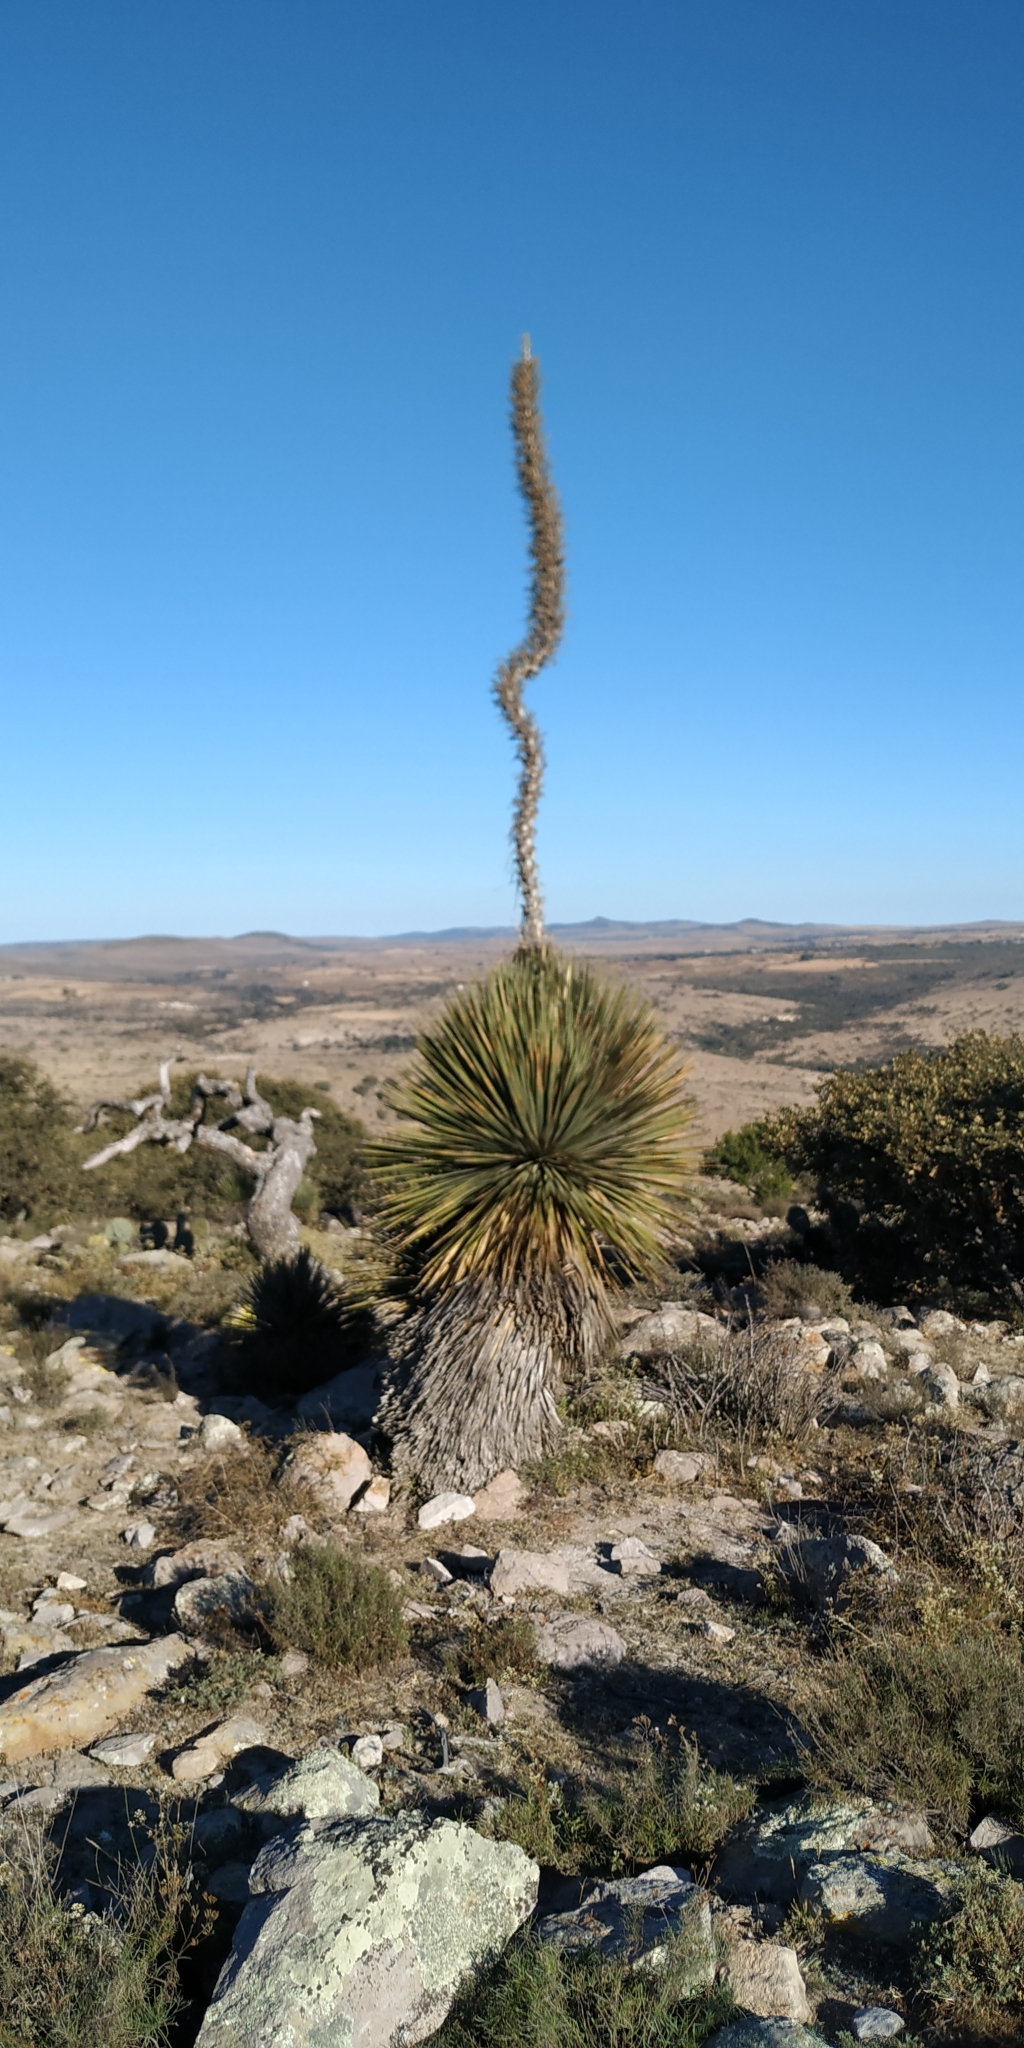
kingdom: Plantae
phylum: Tracheophyta
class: Liliopsida
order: Asparagales
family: Asparagaceae
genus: Dasylirion
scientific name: Dasylirion acrotrichum
